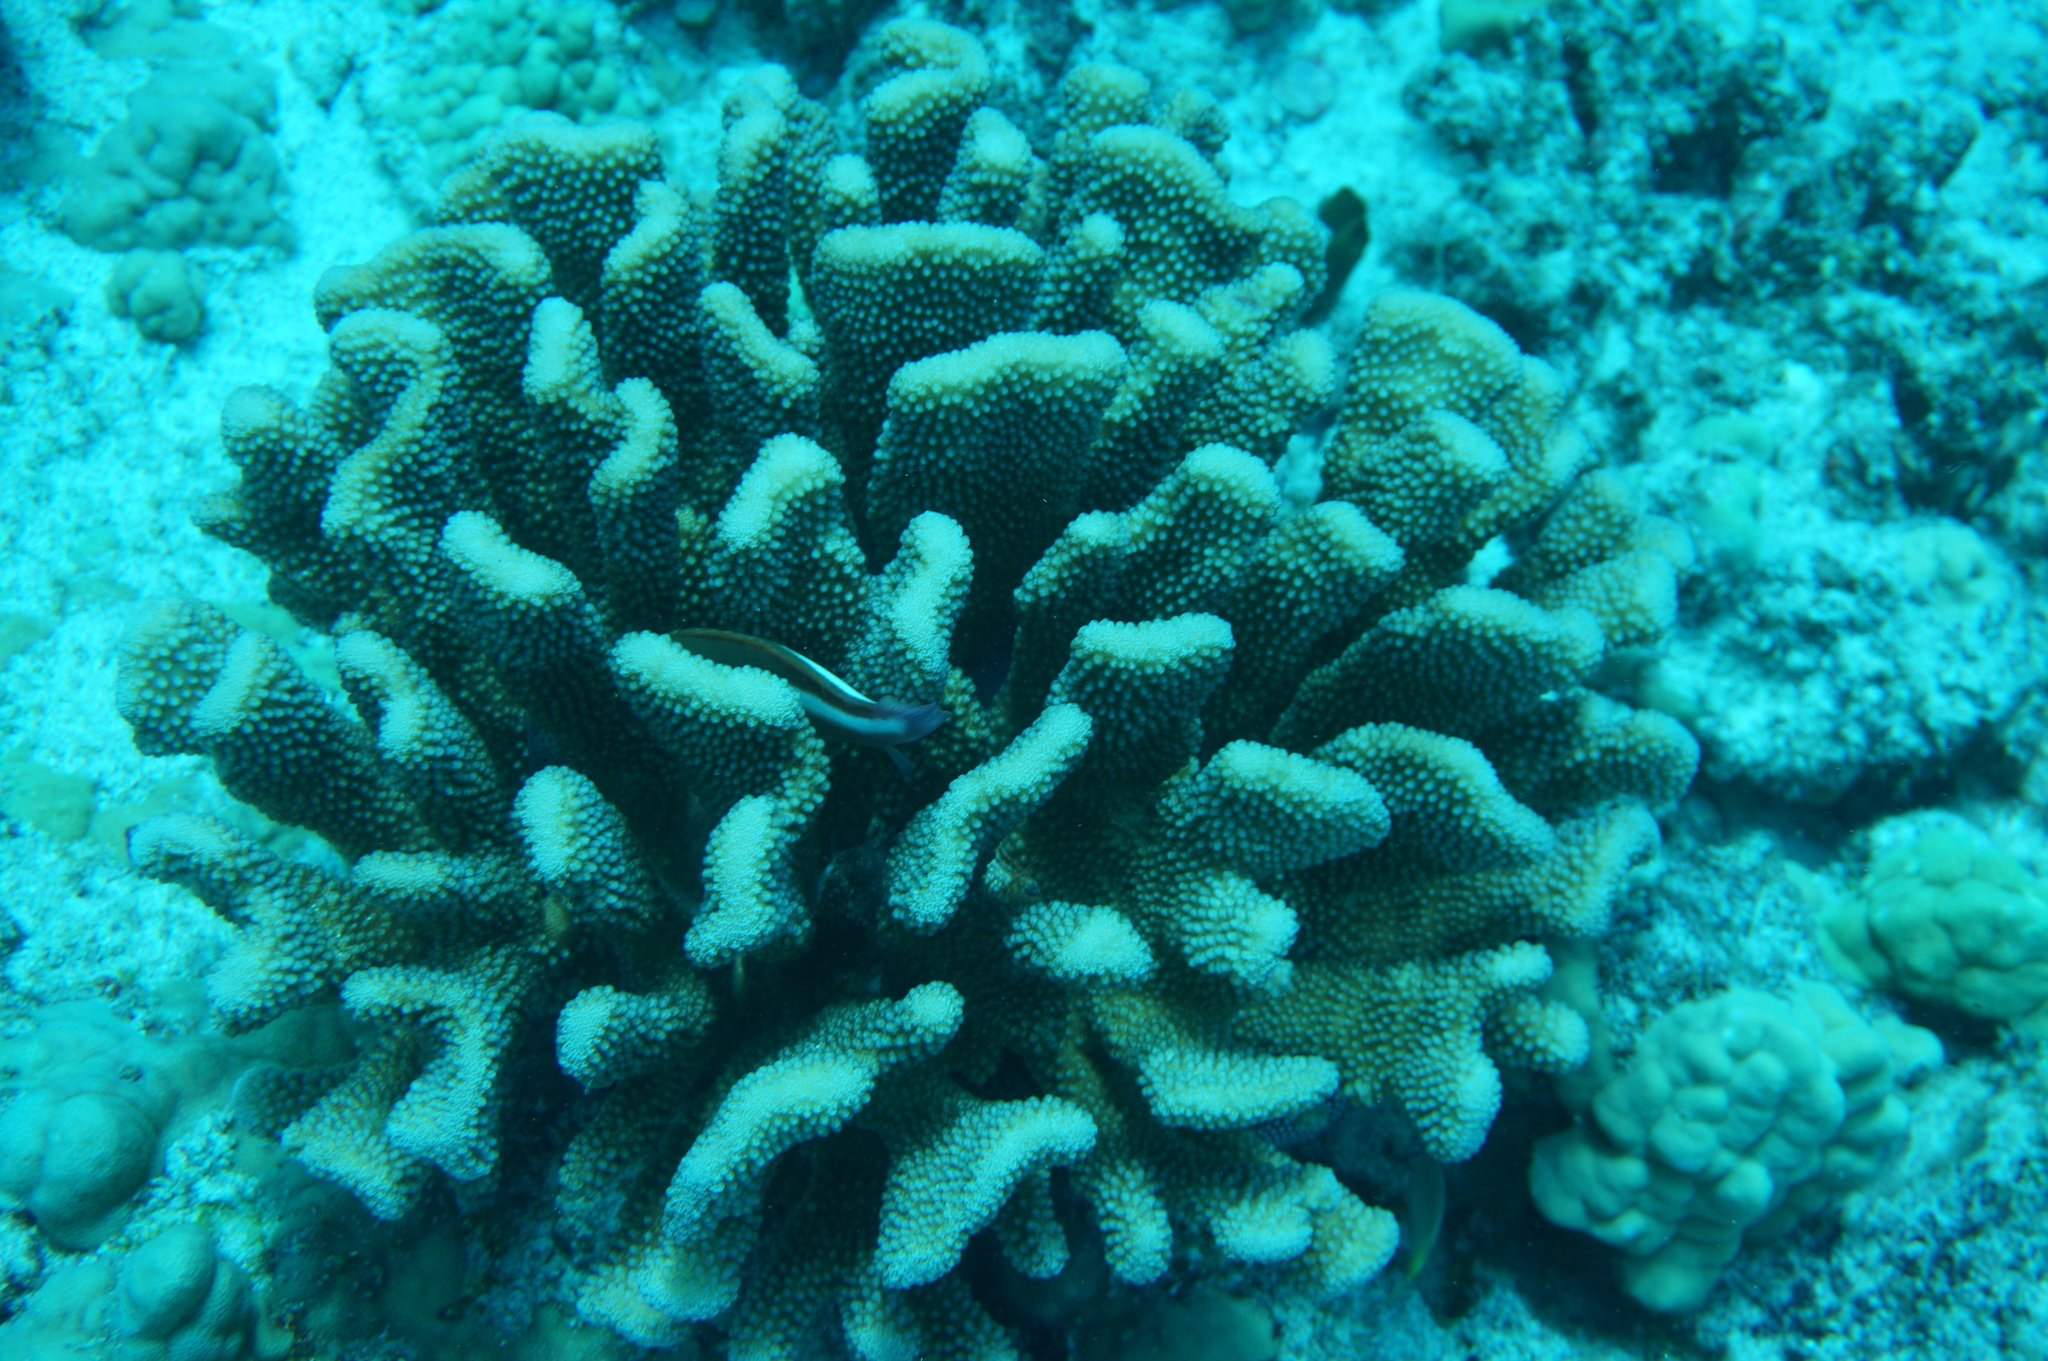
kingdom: Animalia
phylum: Cnidaria
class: Anthozoa
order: Scleractinia
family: Pocilloporidae
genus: Pocillopora
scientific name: Pocillopora grandis
